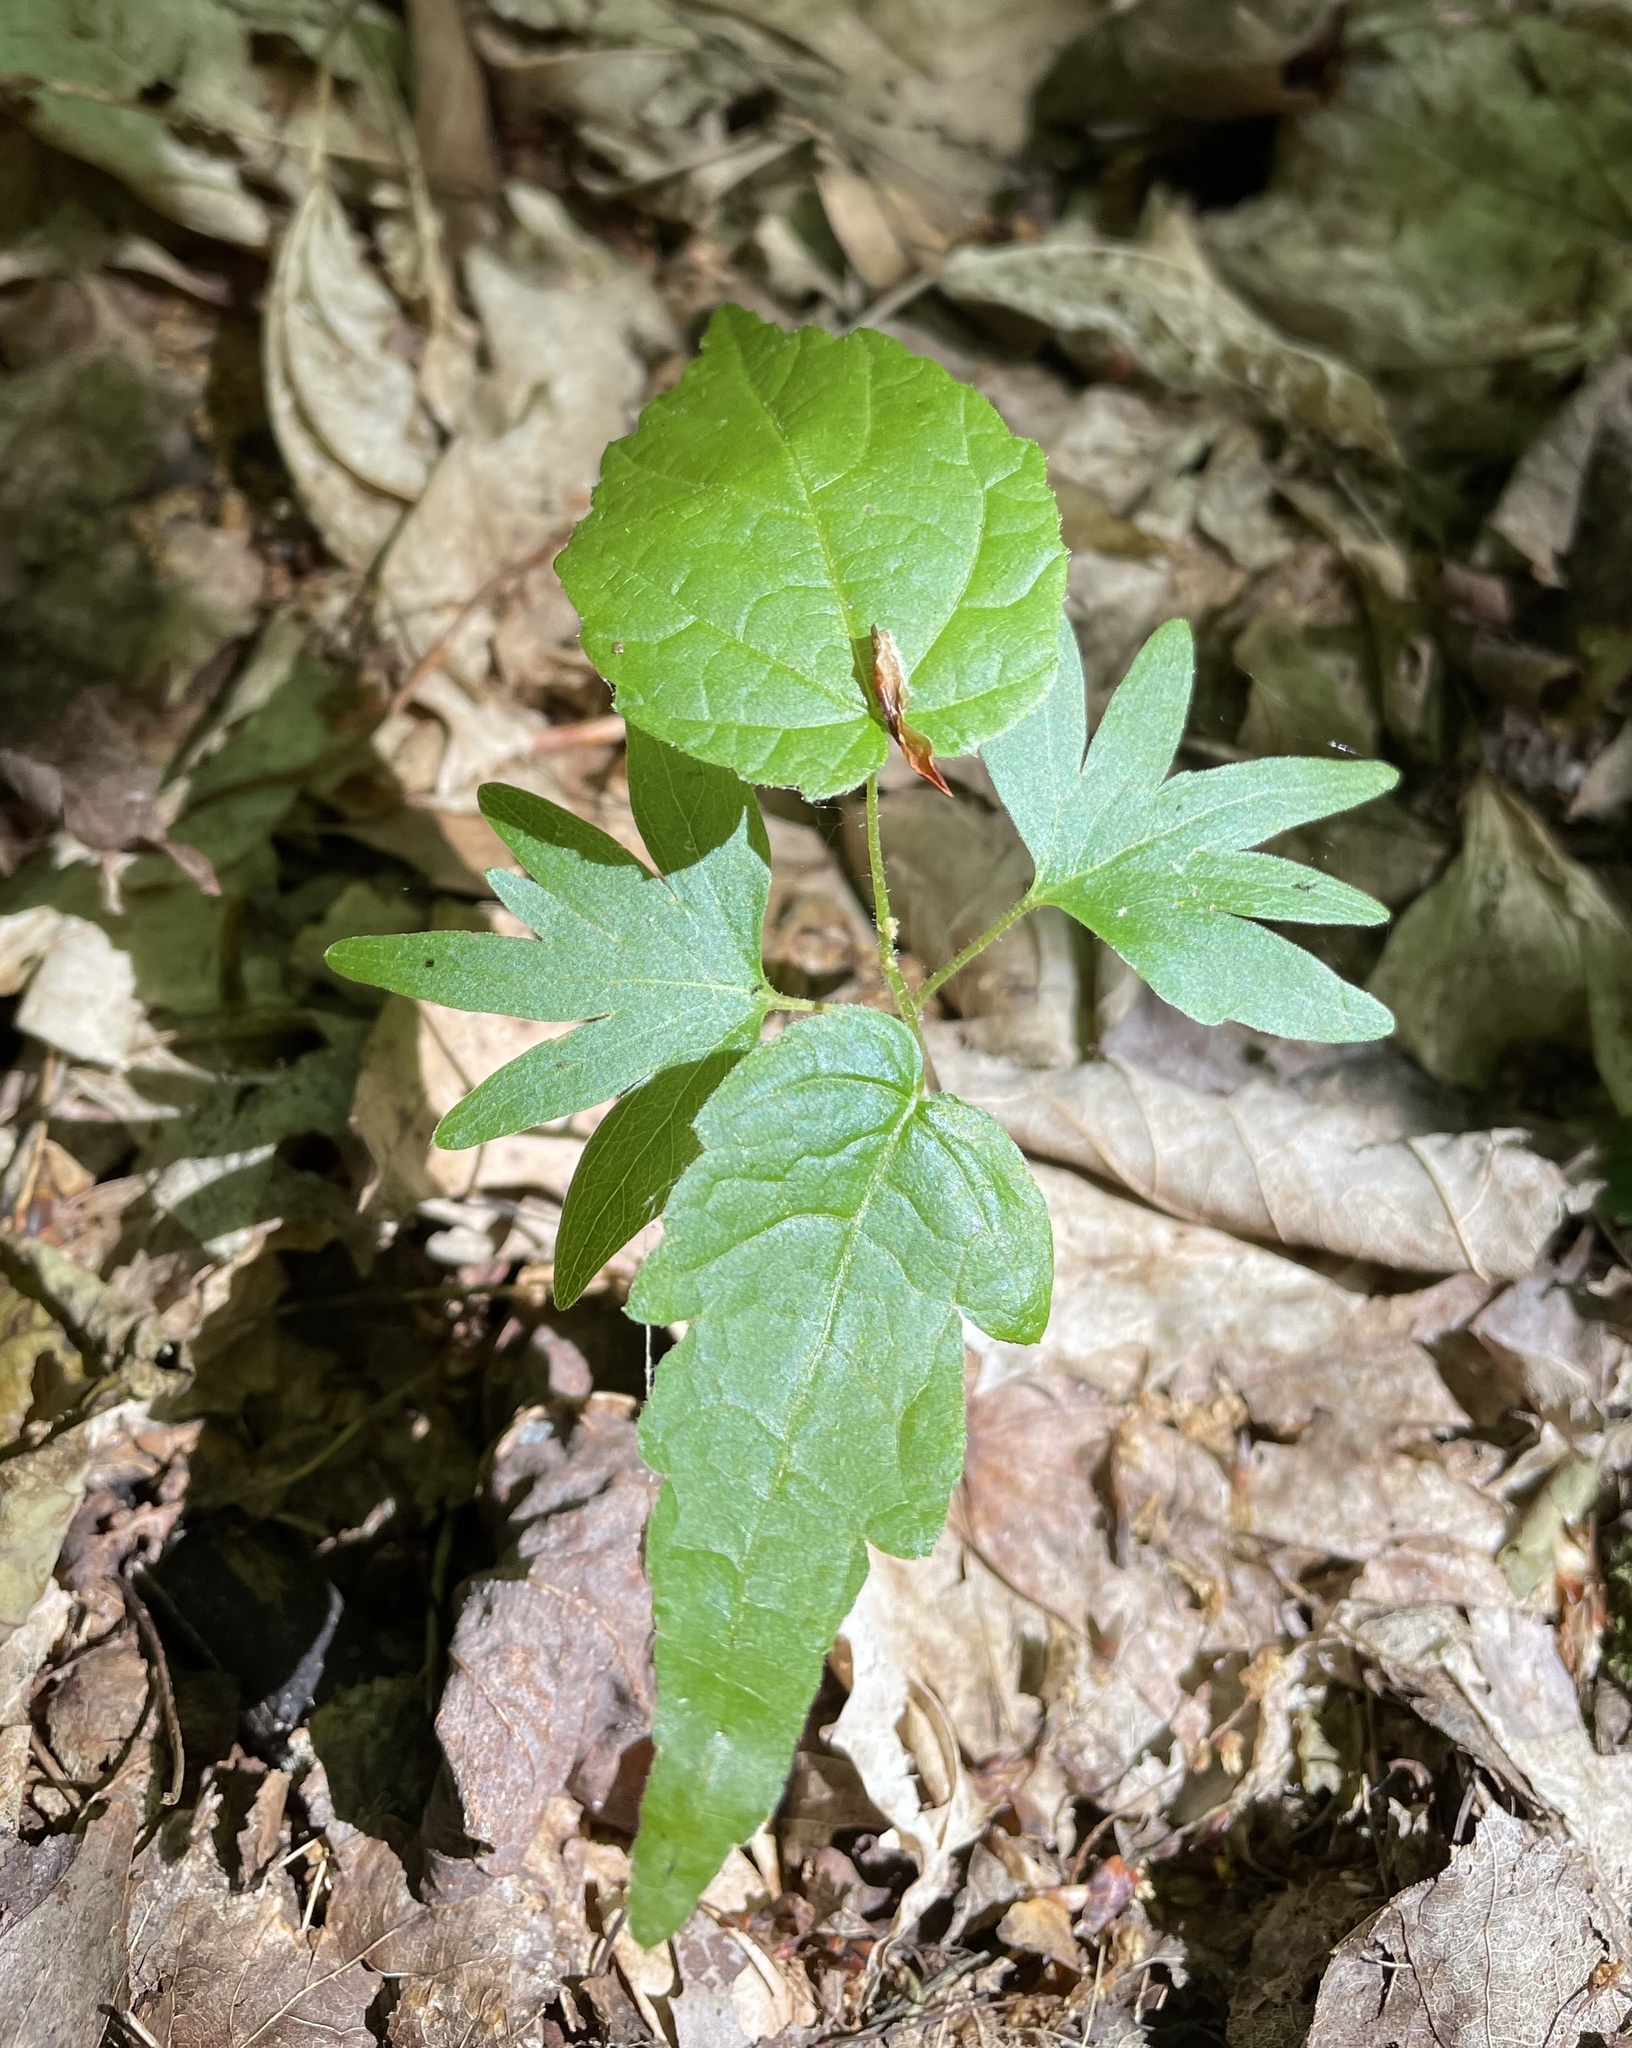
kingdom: Plantae
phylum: Tracheophyta
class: Magnoliopsida
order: Malvales
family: Malvaceae
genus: Tilia
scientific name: Tilia americana
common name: Basswood
